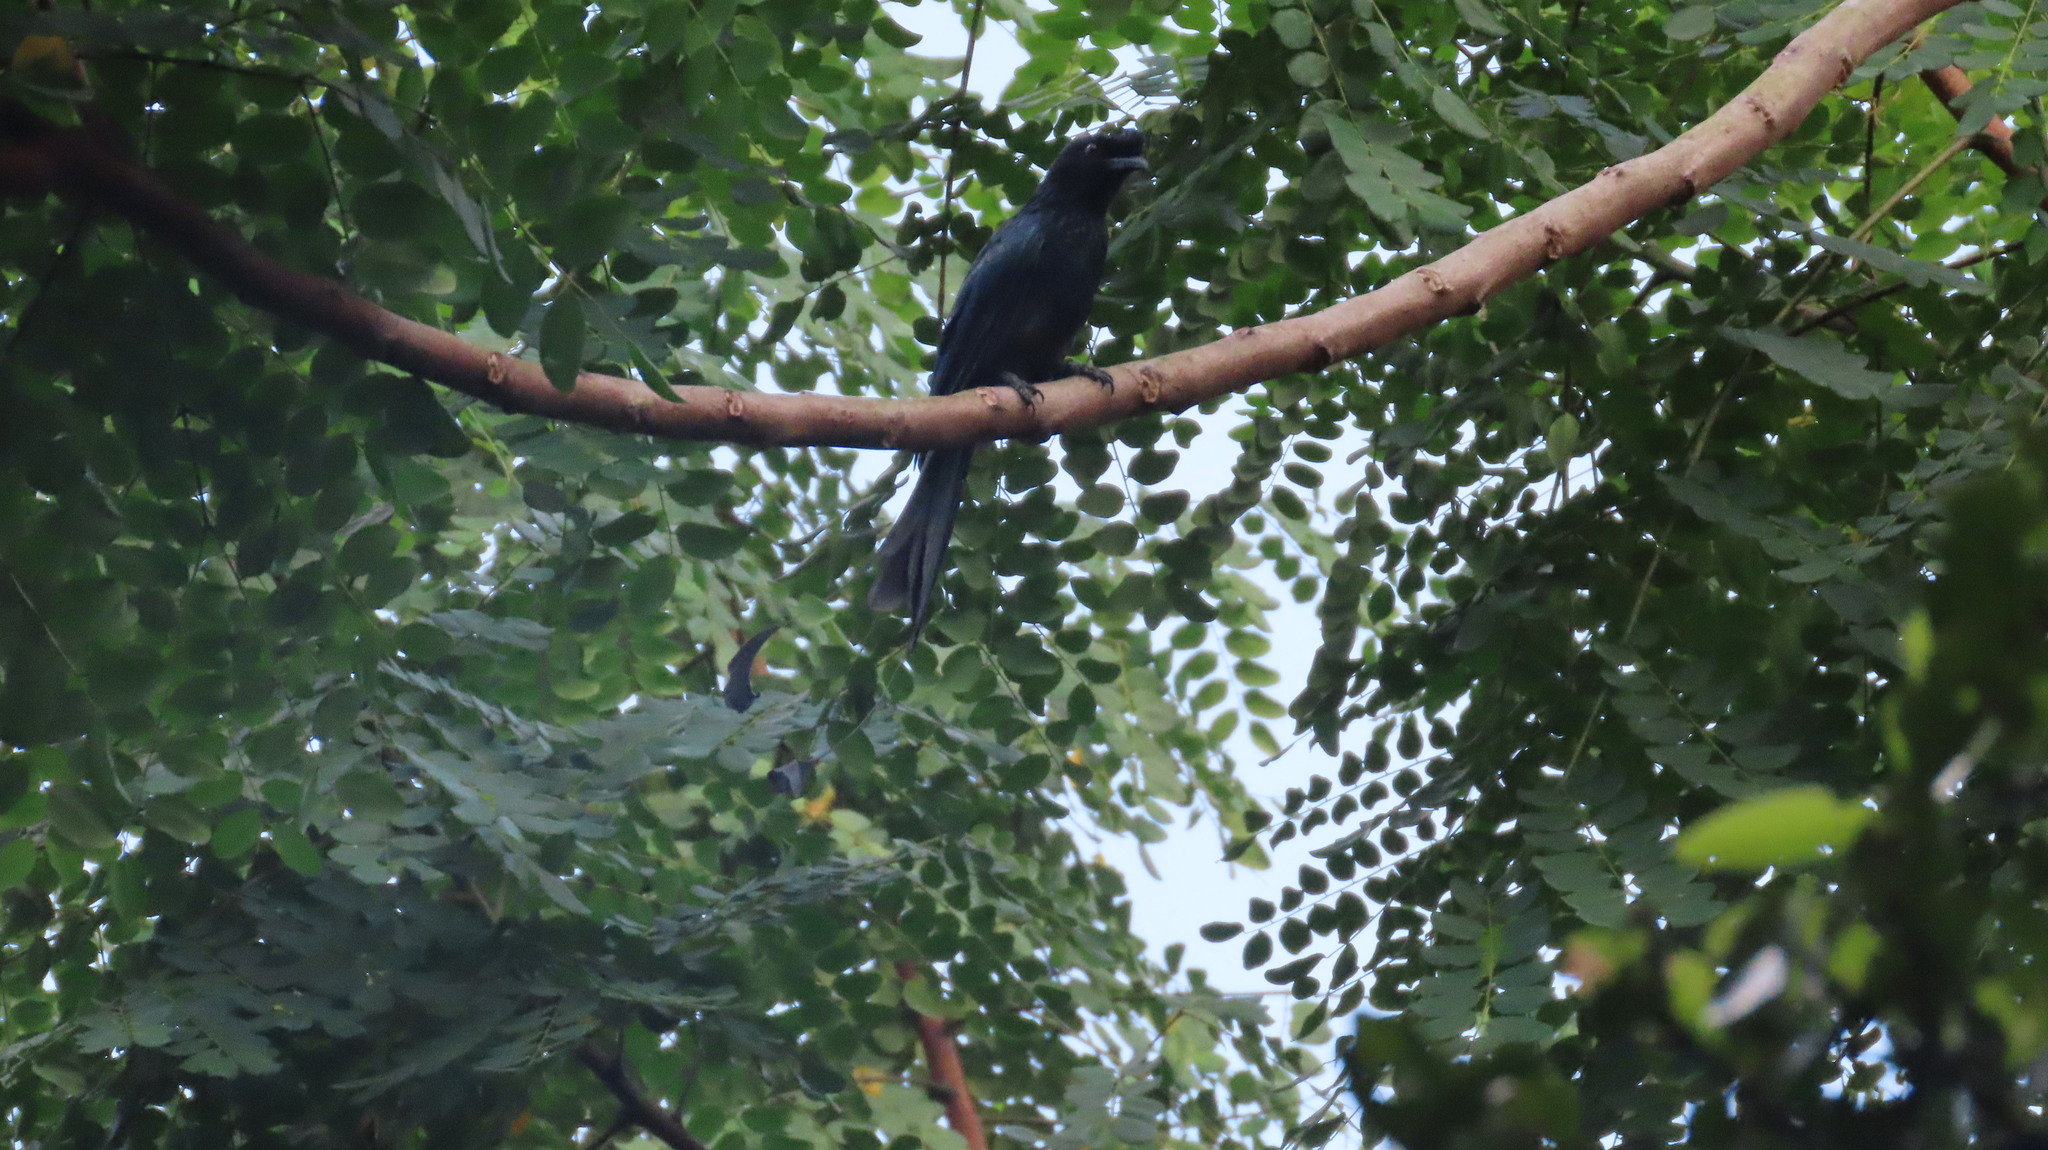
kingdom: Animalia
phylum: Chordata
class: Aves
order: Passeriformes
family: Dicruridae
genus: Dicrurus
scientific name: Dicrurus paradiseus
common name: Greater racket-tailed drongo
